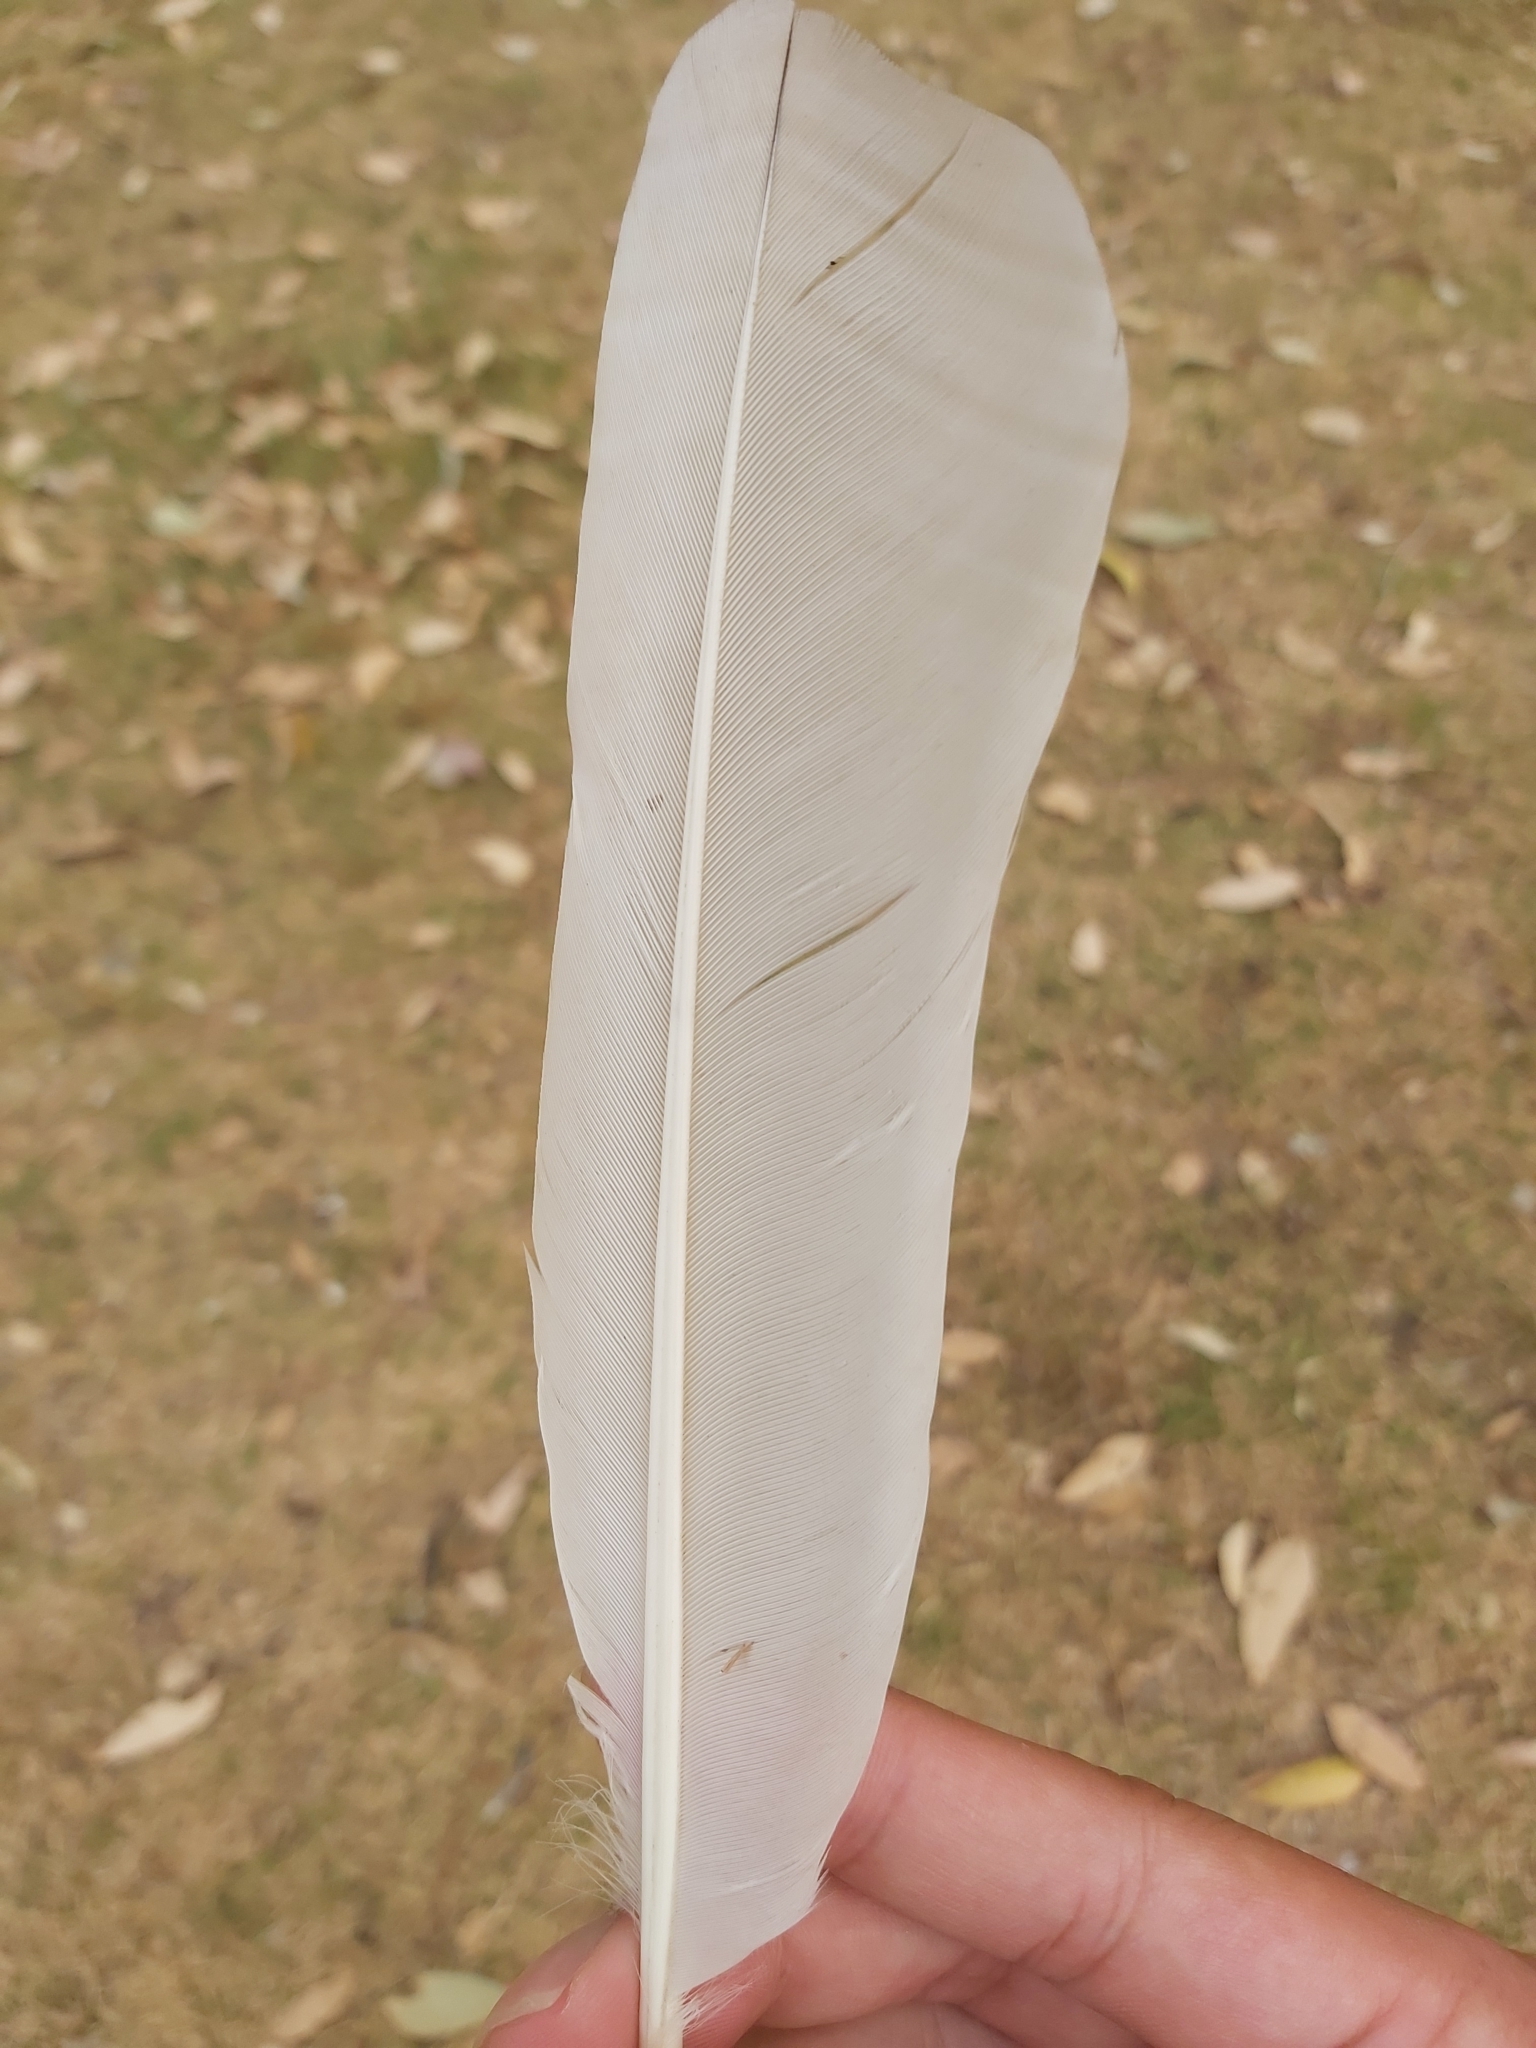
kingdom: Animalia
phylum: Chordata
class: Aves
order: Pelecaniformes
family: Threskiornithidae
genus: Threskiornis
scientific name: Threskiornis molucca
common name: Australian white ibis
